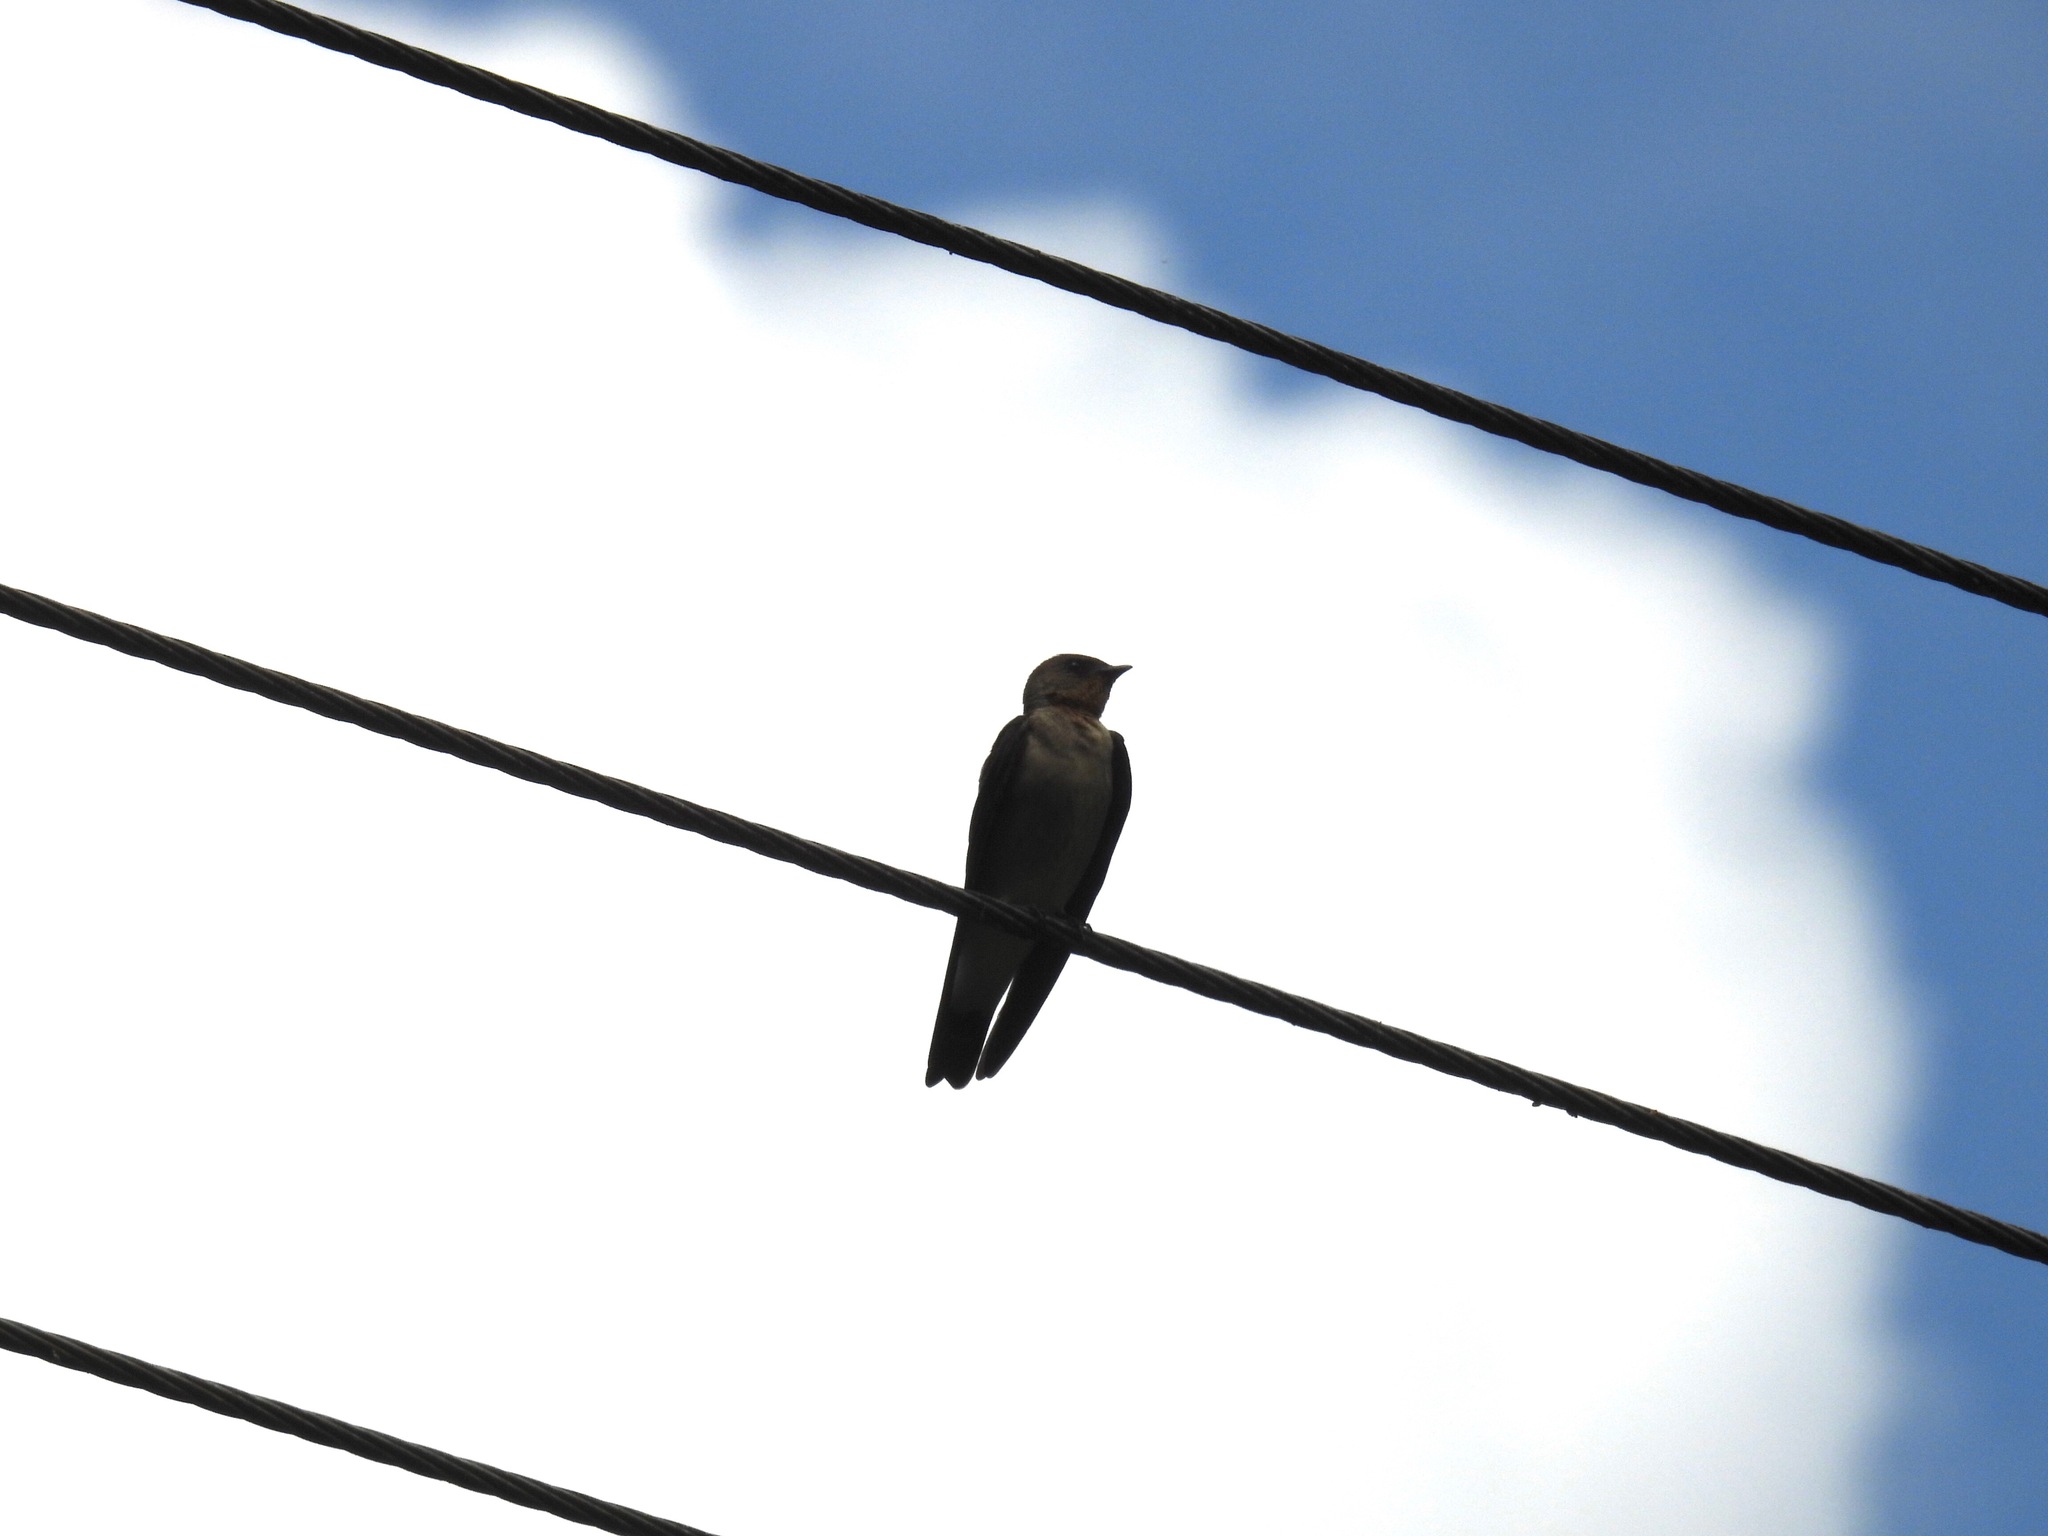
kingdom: Animalia
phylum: Chordata
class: Aves
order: Passeriformes
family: Hirundinidae
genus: Progne
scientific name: Progne chalybea
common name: Grey-breasted martin
